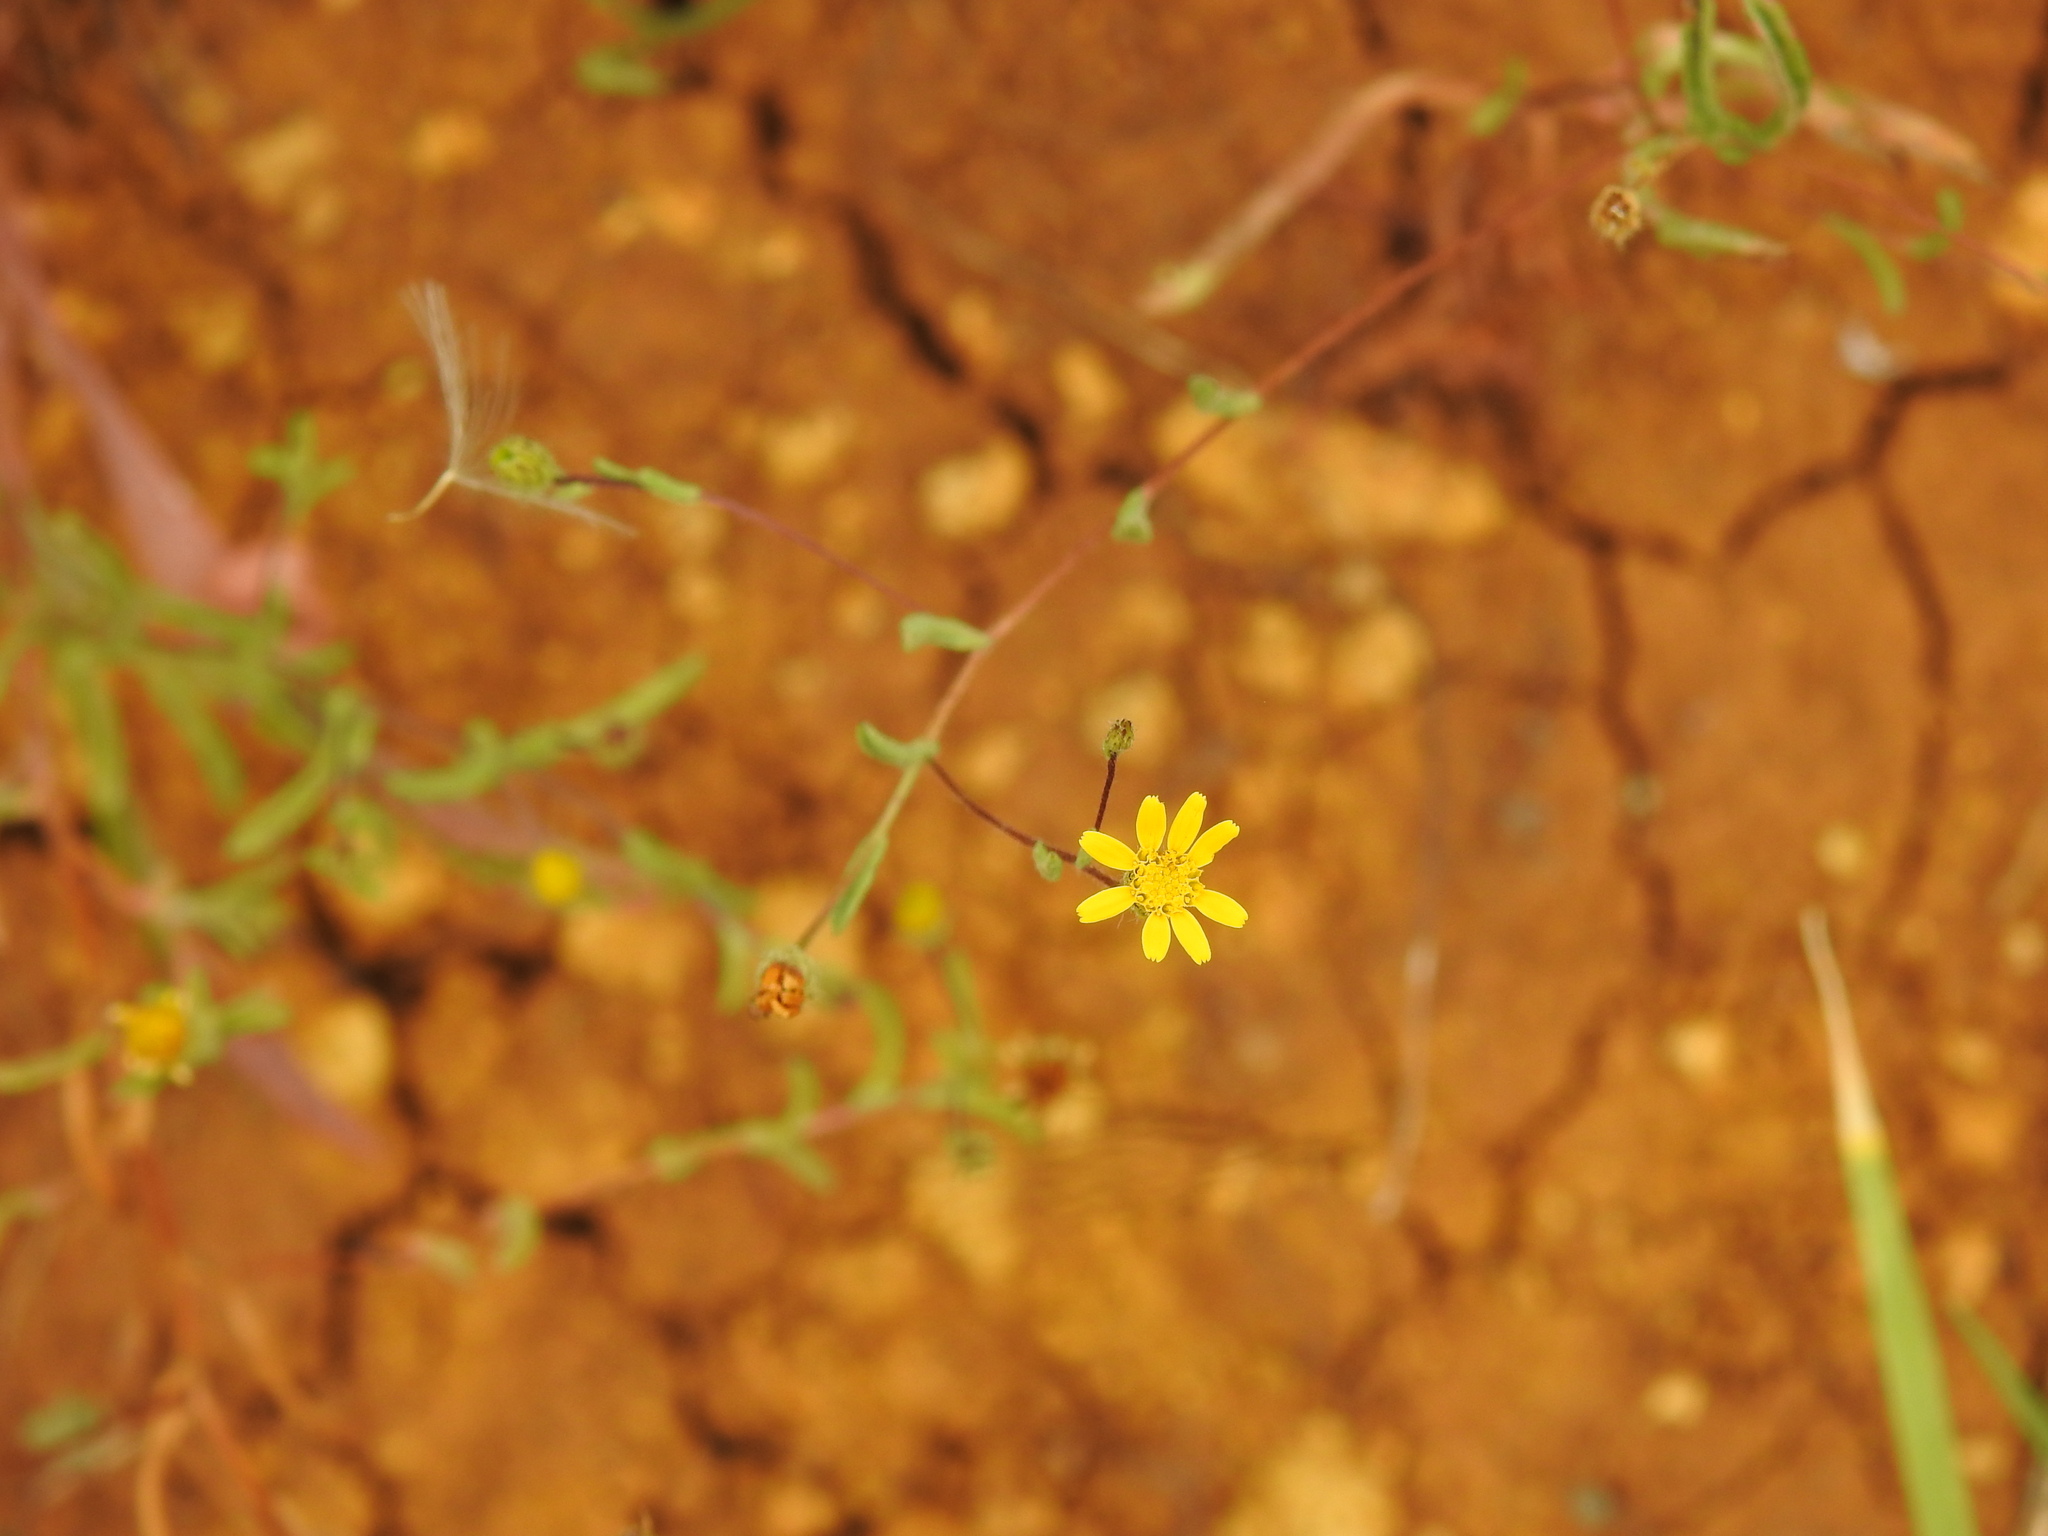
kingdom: Plantae
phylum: Tracheophyta
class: Magnoliopsida
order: Asterales
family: Asteraceae
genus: Pulicaria
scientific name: Pulicaria paludosa
